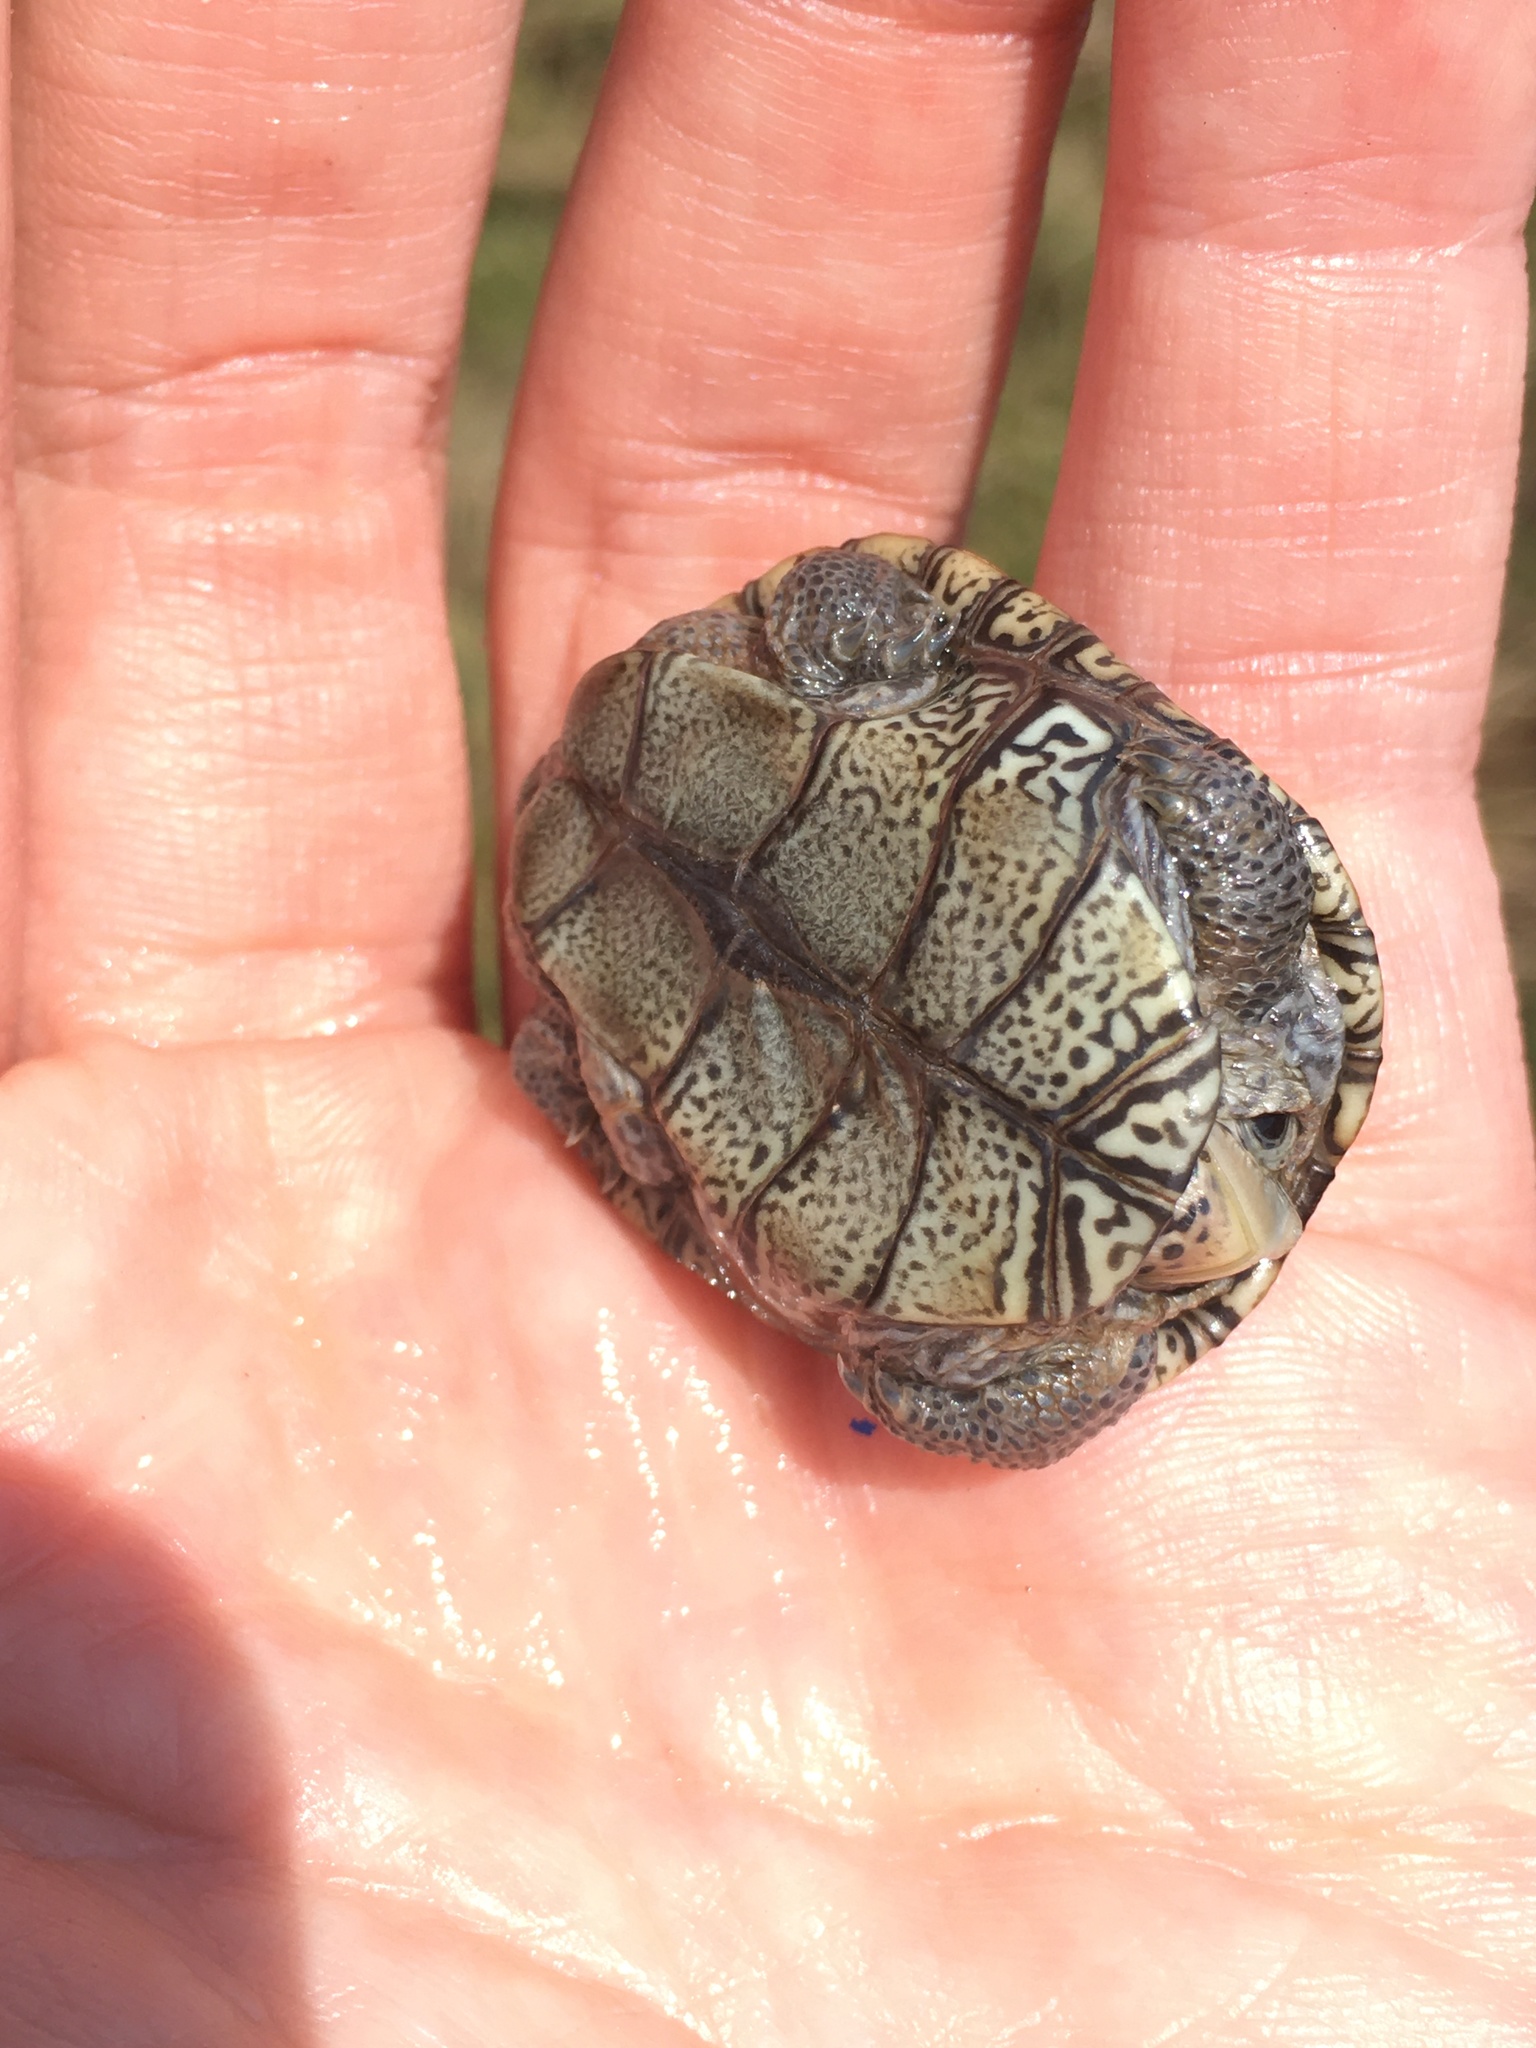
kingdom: Animalia
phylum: Chordata
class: Testudines
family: Emydidae
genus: Malaclemys
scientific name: Malaclemys terrapin
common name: Diamondback terrapin
